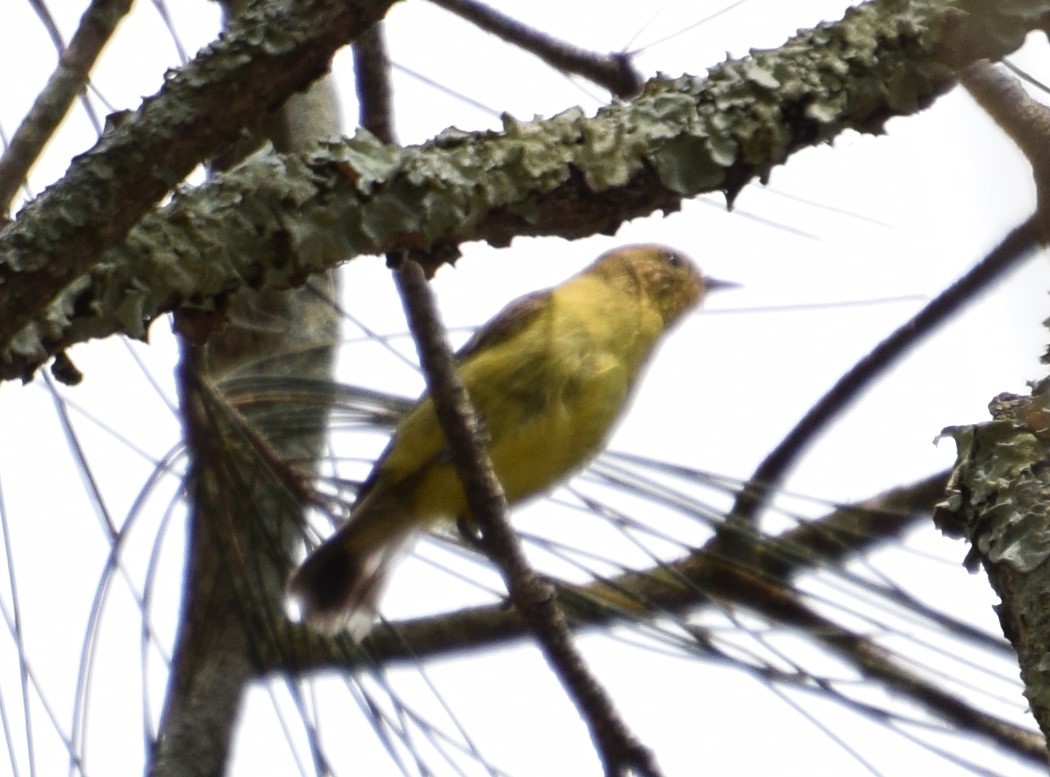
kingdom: Animalia
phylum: Chordata
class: Aves
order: Passeriformes
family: Acanthizidae
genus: Acanthiza
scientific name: Acanthiza nana
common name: Yellow thornbill
